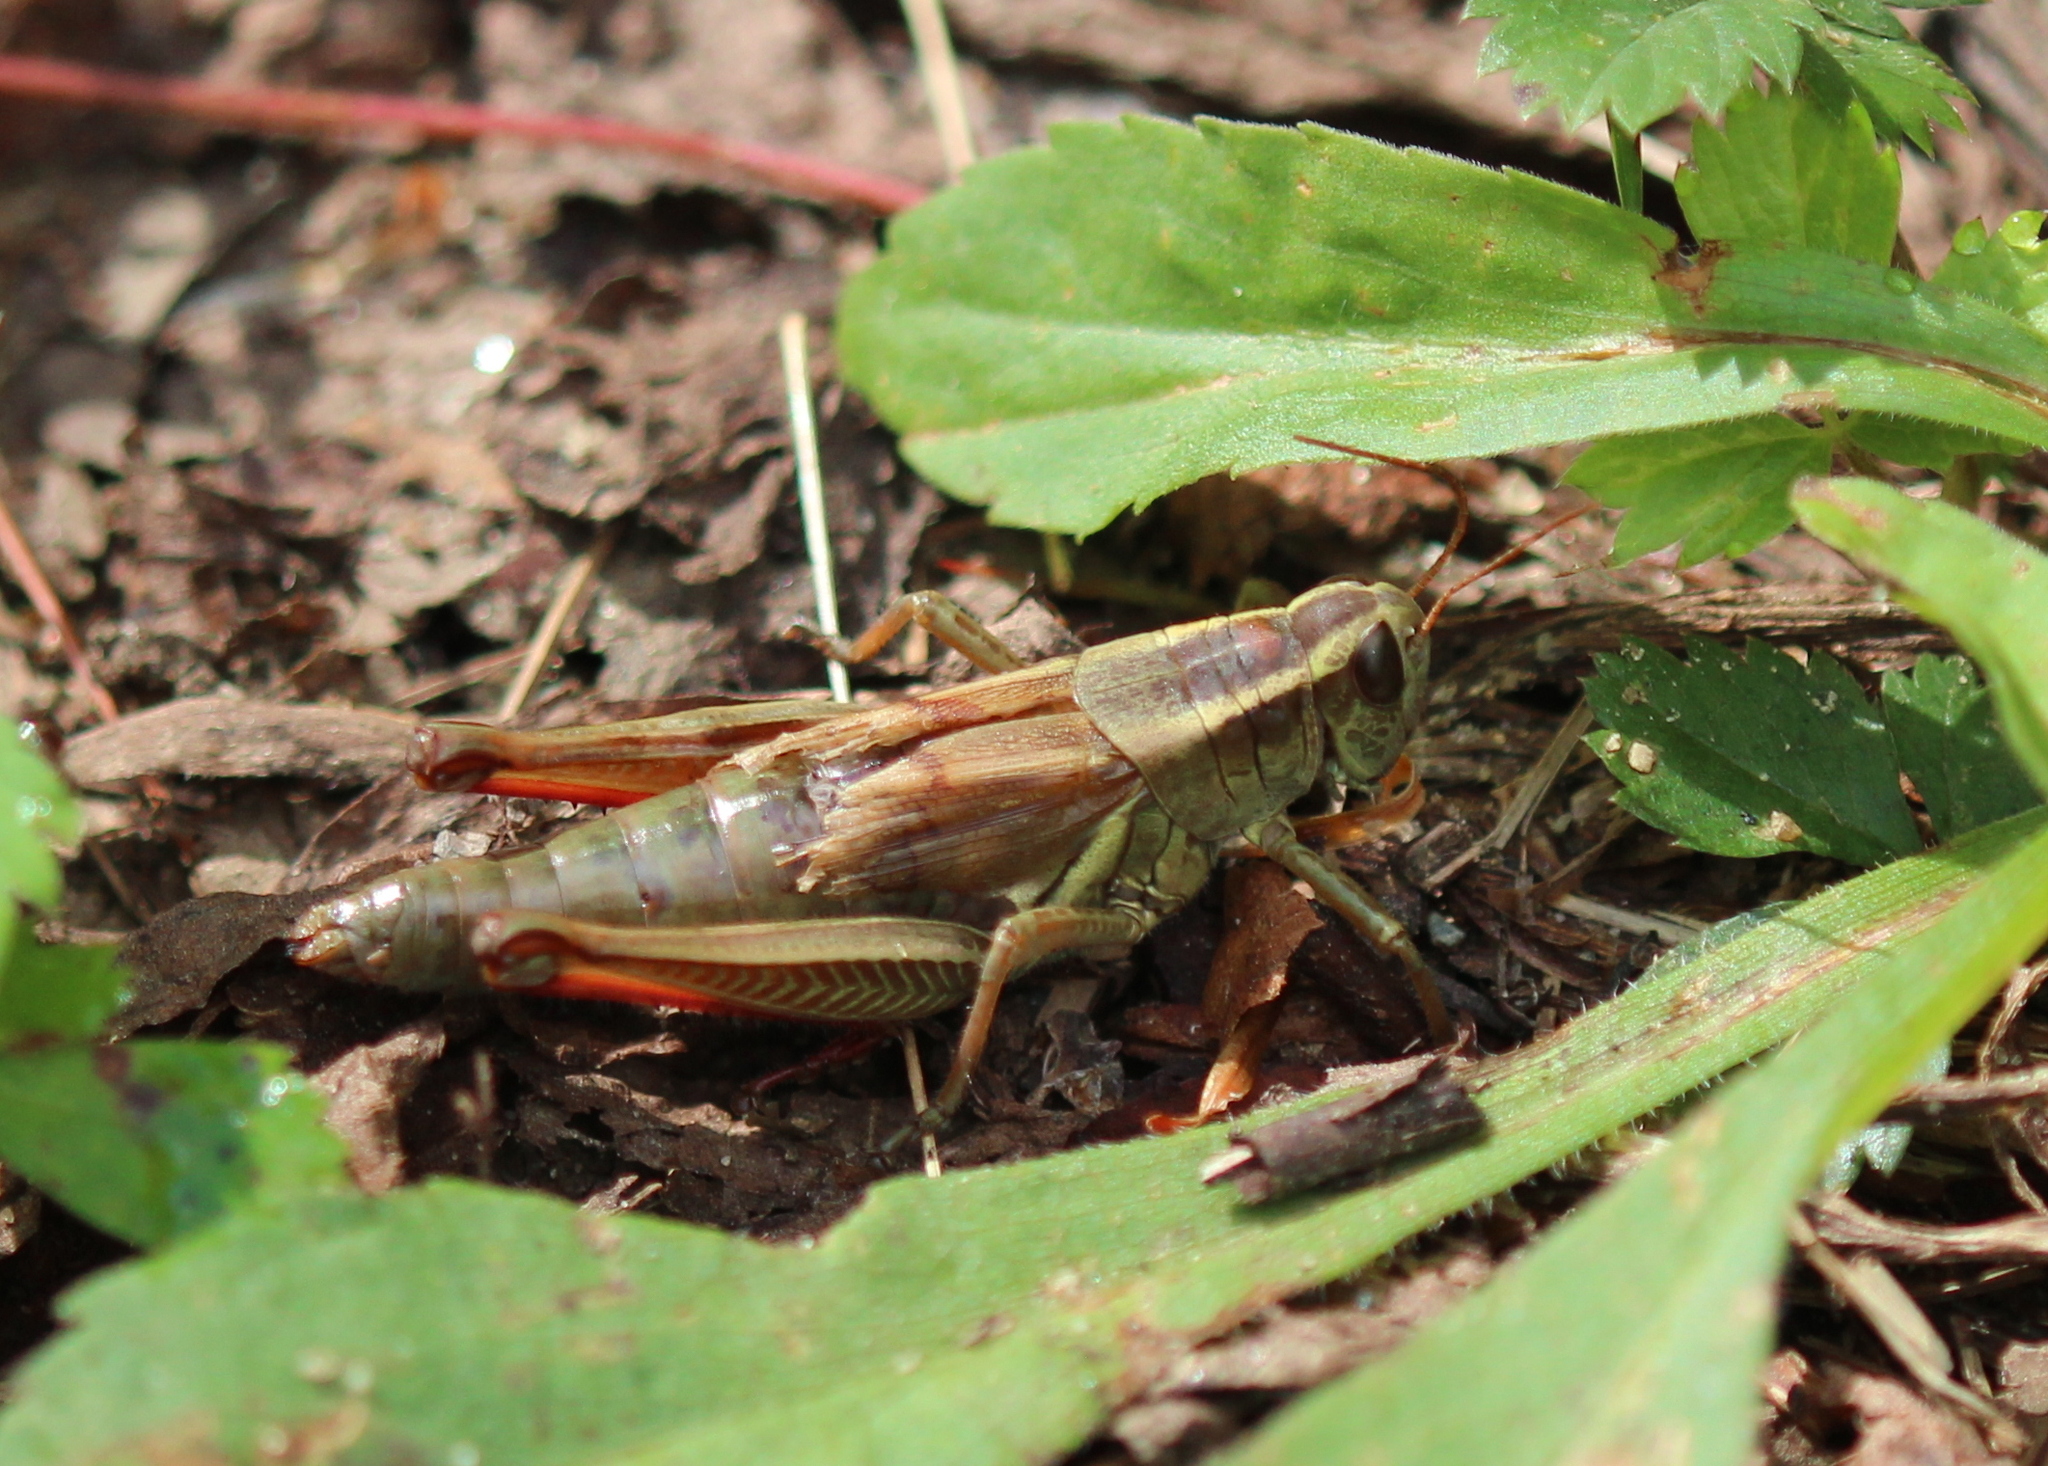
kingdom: Animalia
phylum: Arthropoda
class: Insecta
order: Orthoptera
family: Acrididae
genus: Melanoplus
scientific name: Melanoplus bivittatus
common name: Two-striped grasshopper
